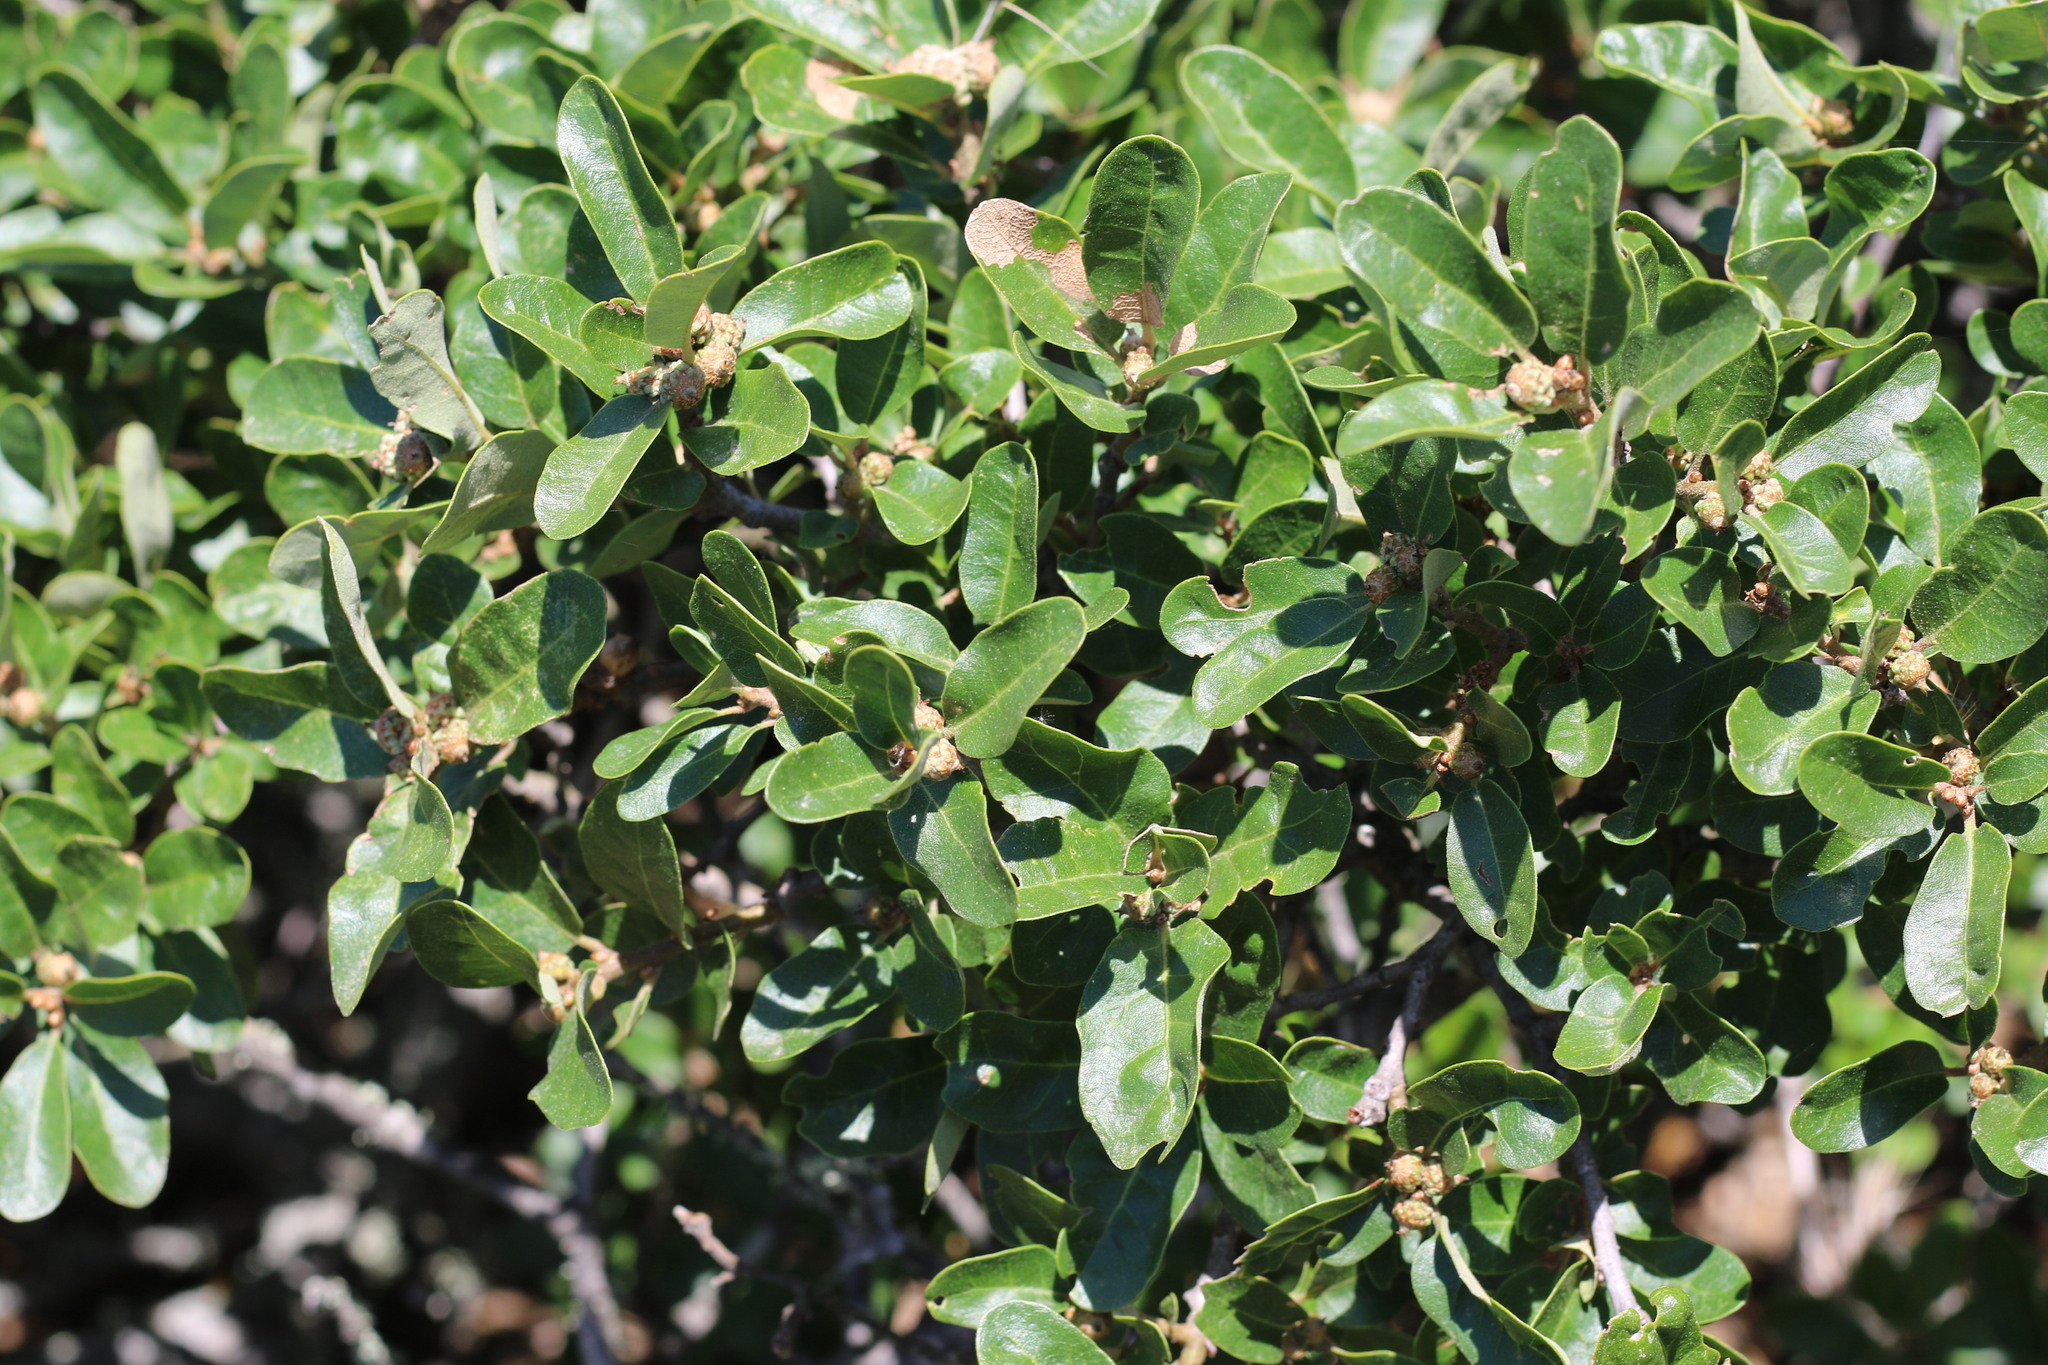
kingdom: Plantae
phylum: Tracheophyta
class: Magnoliopsida
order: Fagales
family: Fagaceae
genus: Quercus
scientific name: Quercus pacifica
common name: Channel island scrub oak
